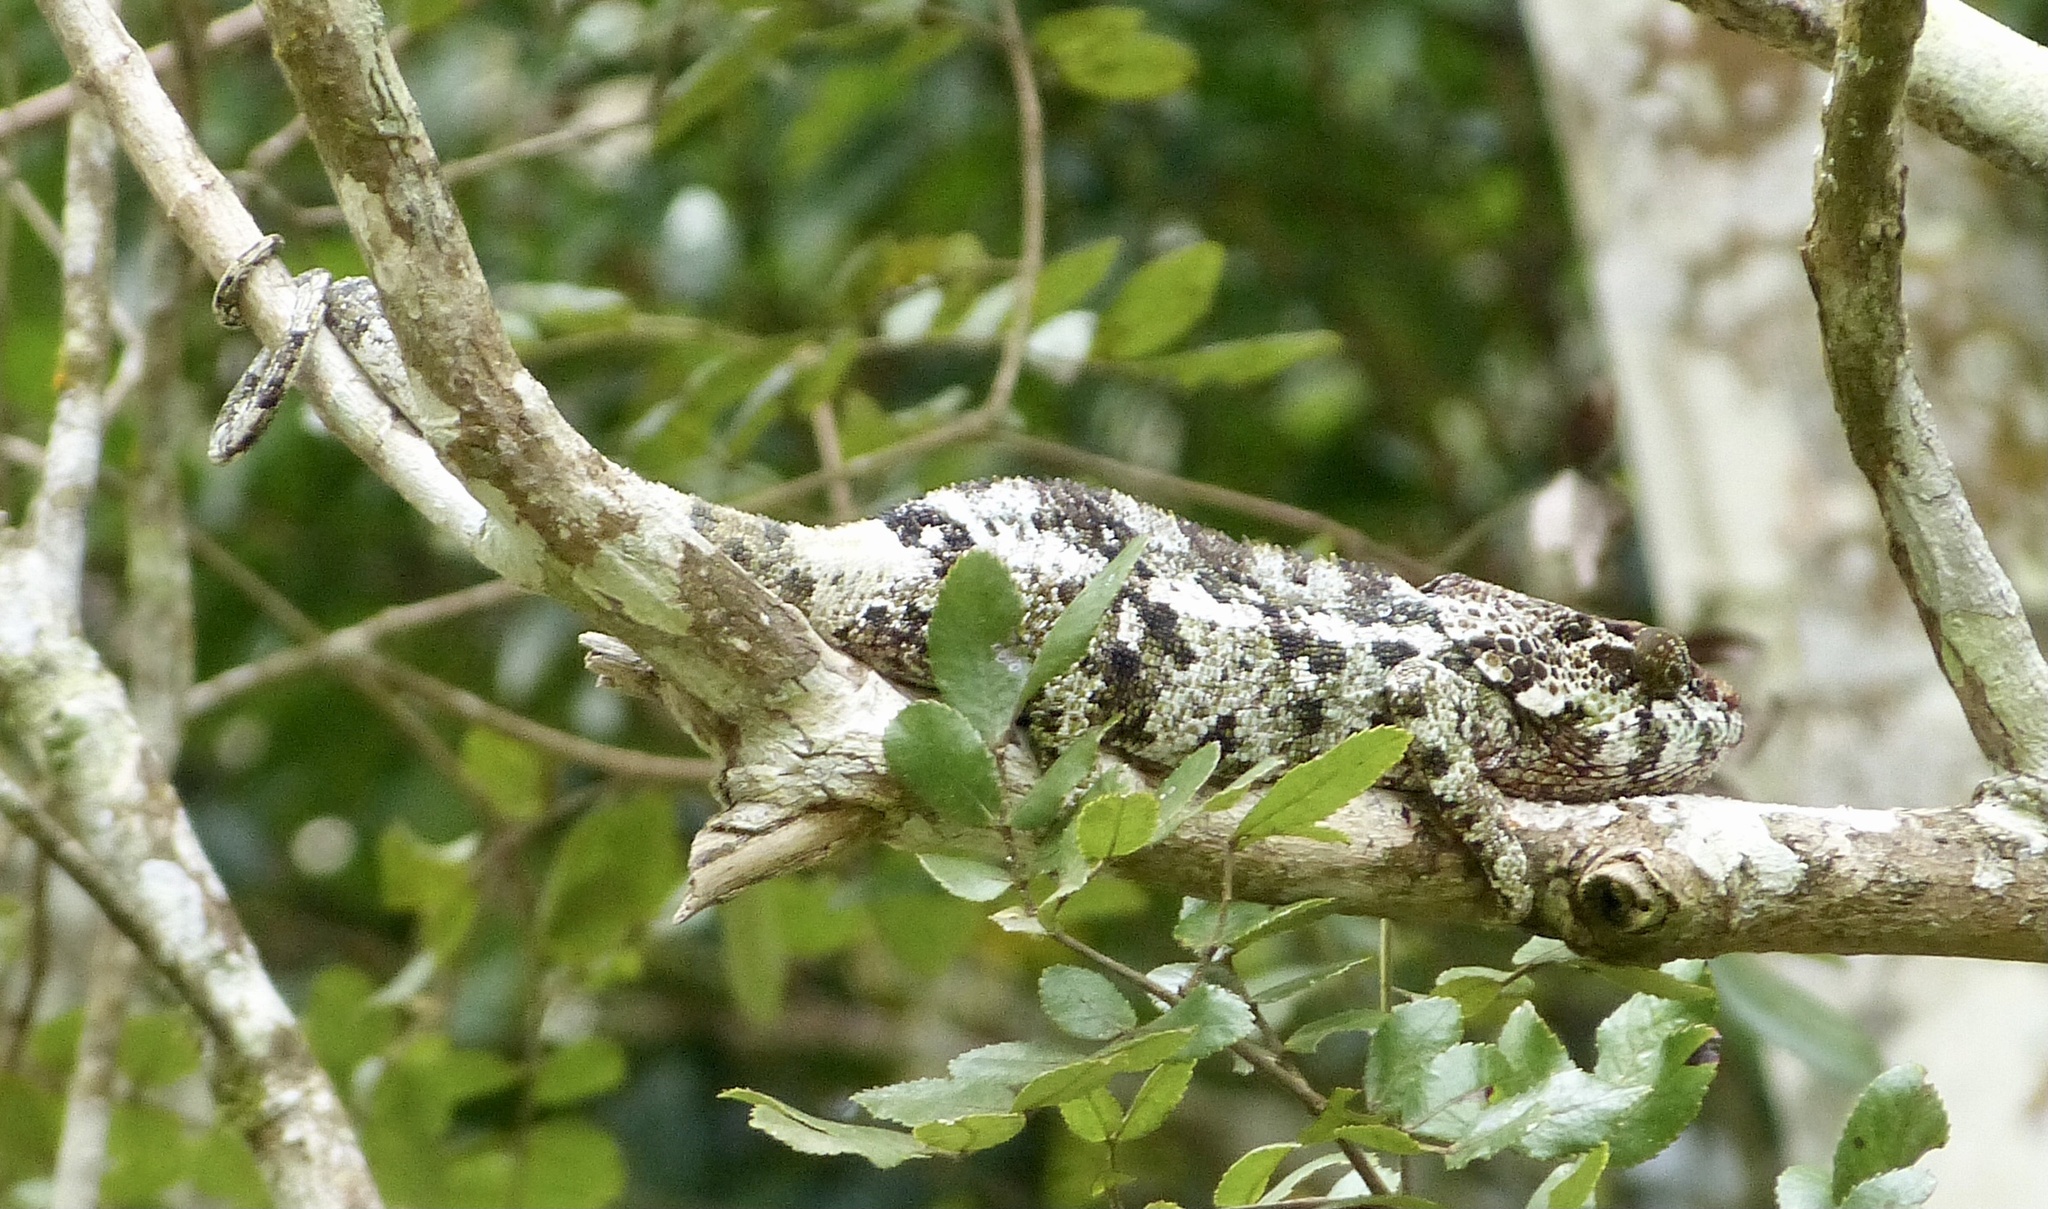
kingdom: Animalia
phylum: Chordata
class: Squamata
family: Chamaeleonidae
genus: Calumma
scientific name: Calumma brevicorne
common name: Short-horned chameleon
